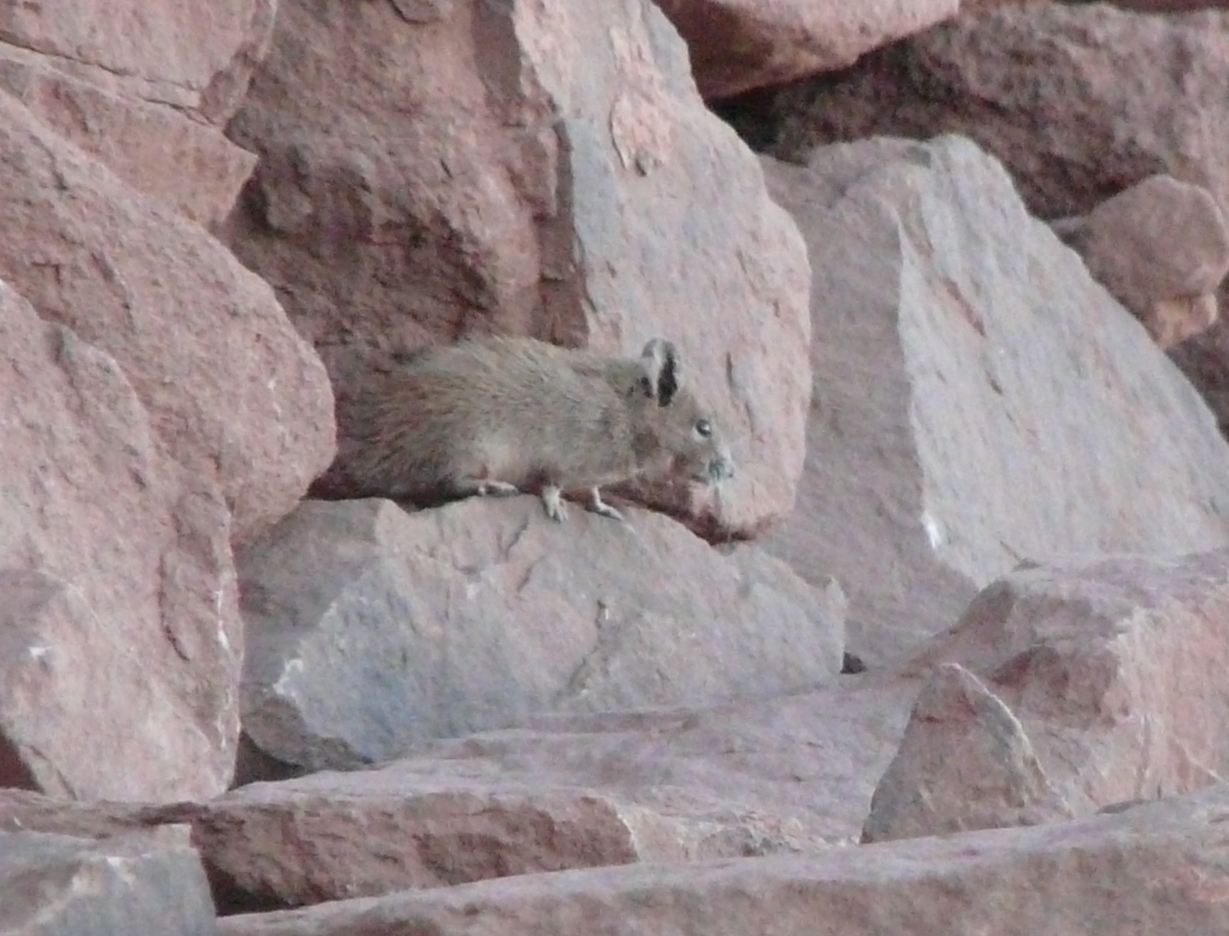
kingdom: Animalia
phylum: Chordata
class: Mammalia
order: Rodentia
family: Muridae
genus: Acomys
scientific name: Acomys russatus
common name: Golden spiny mouse
